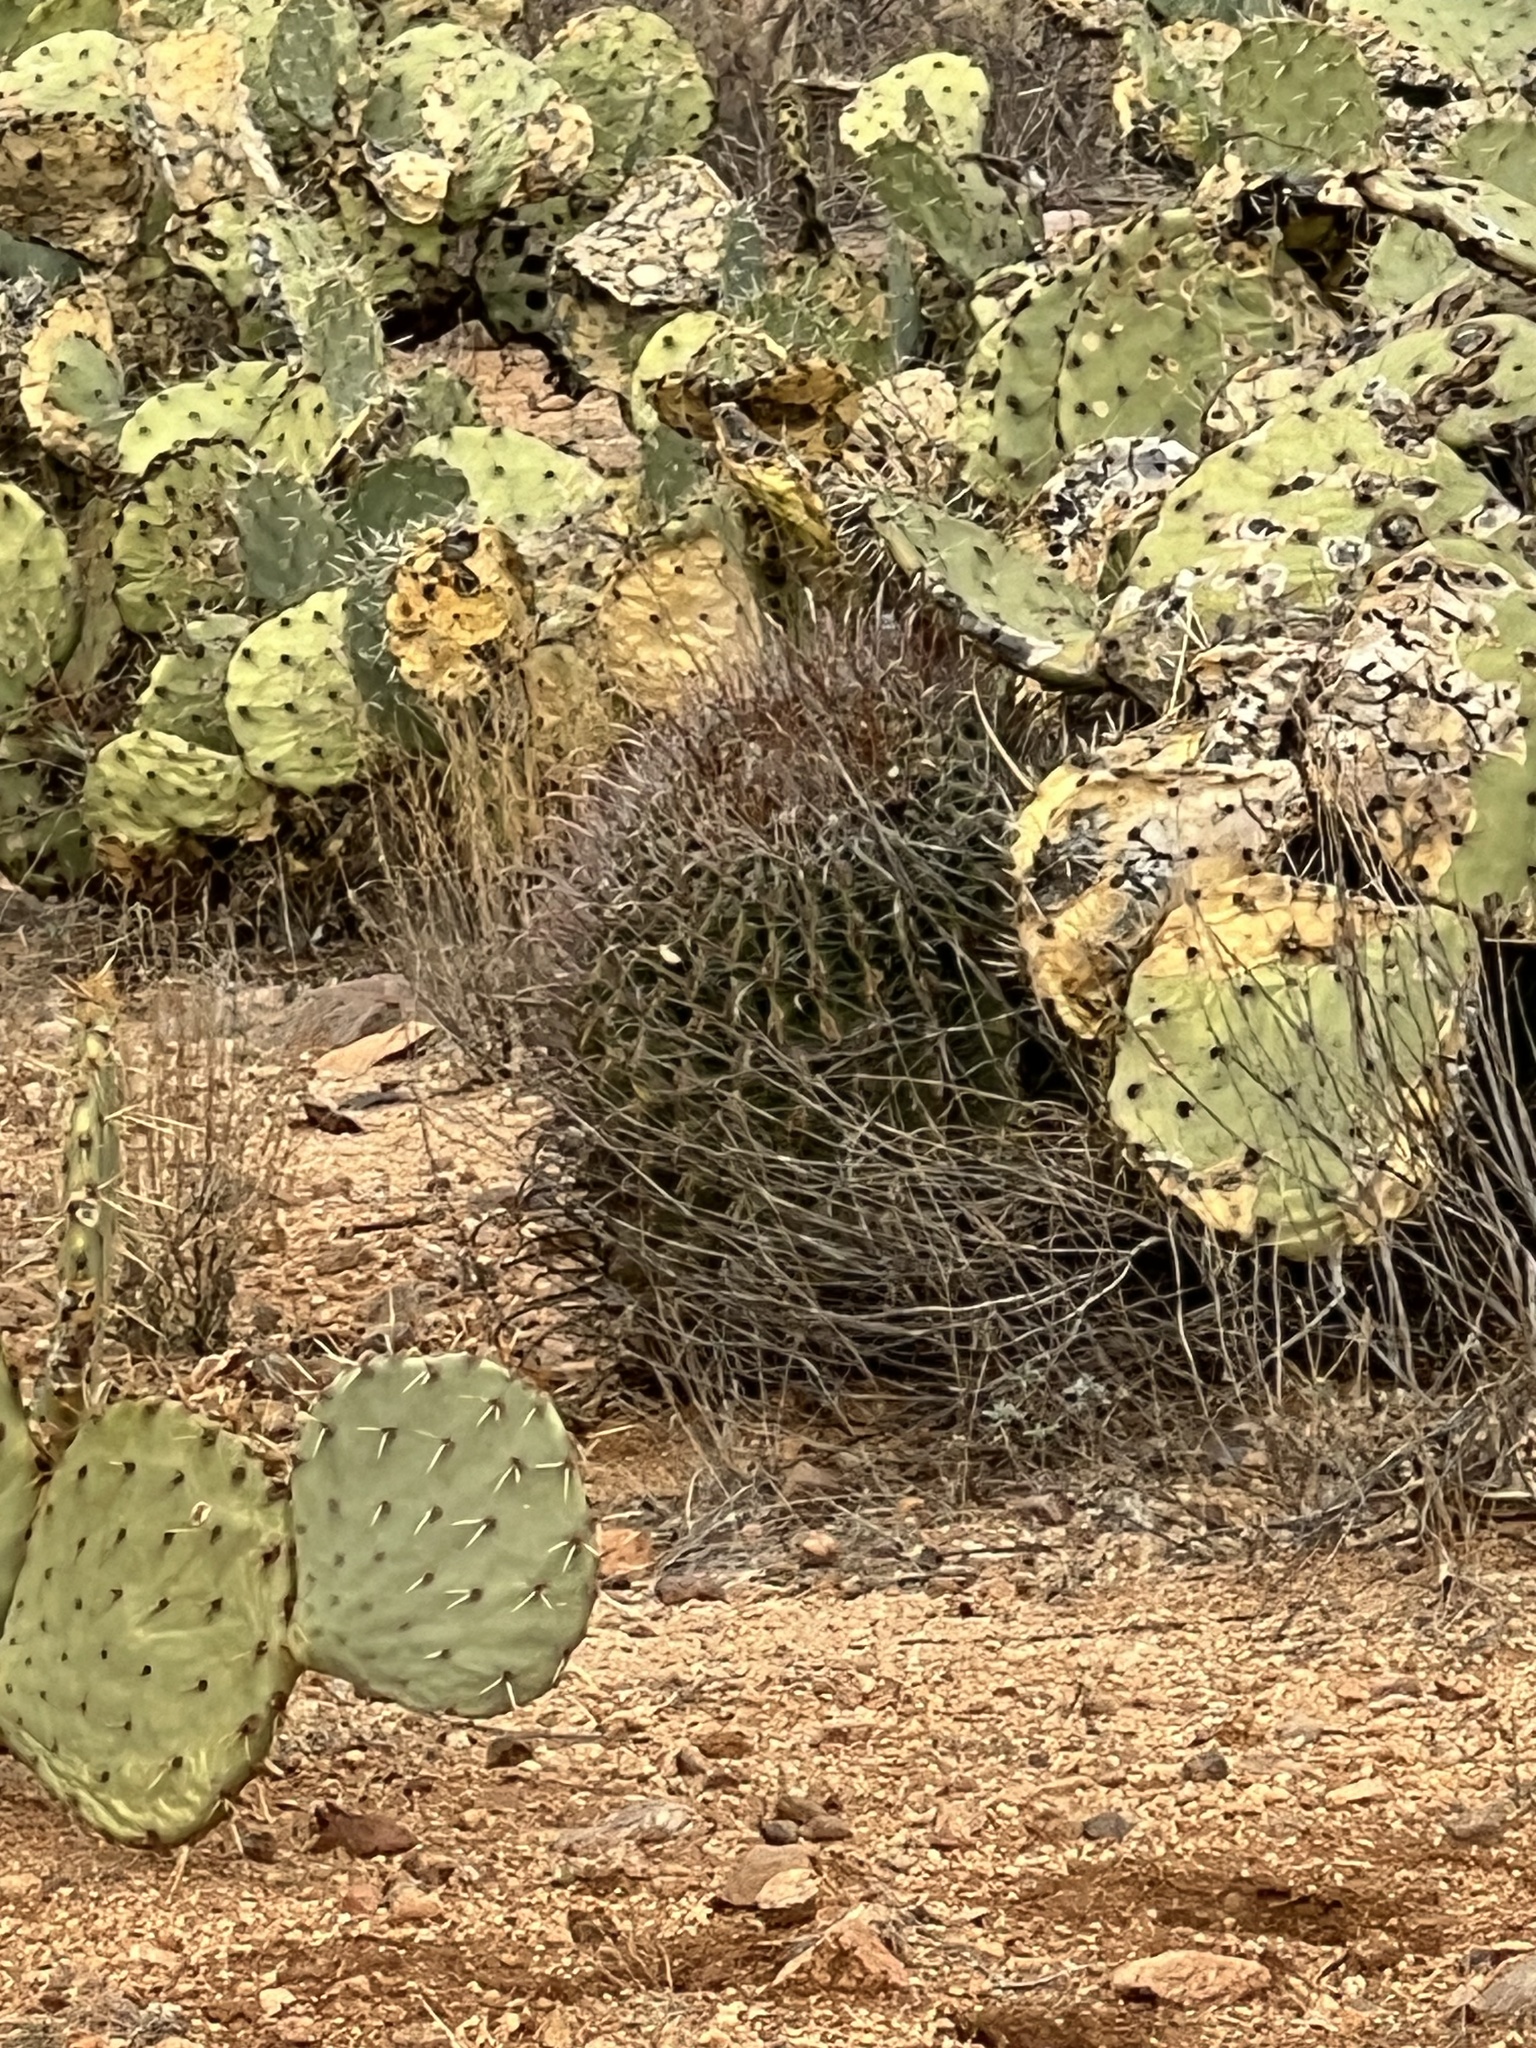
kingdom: Plantae
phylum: Tracheophyta
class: Magnoliopsida
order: Caryophyllales
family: Cactaceae
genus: Ferocactus
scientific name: Ferocactus wislizeni
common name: Candy barrel cactus
